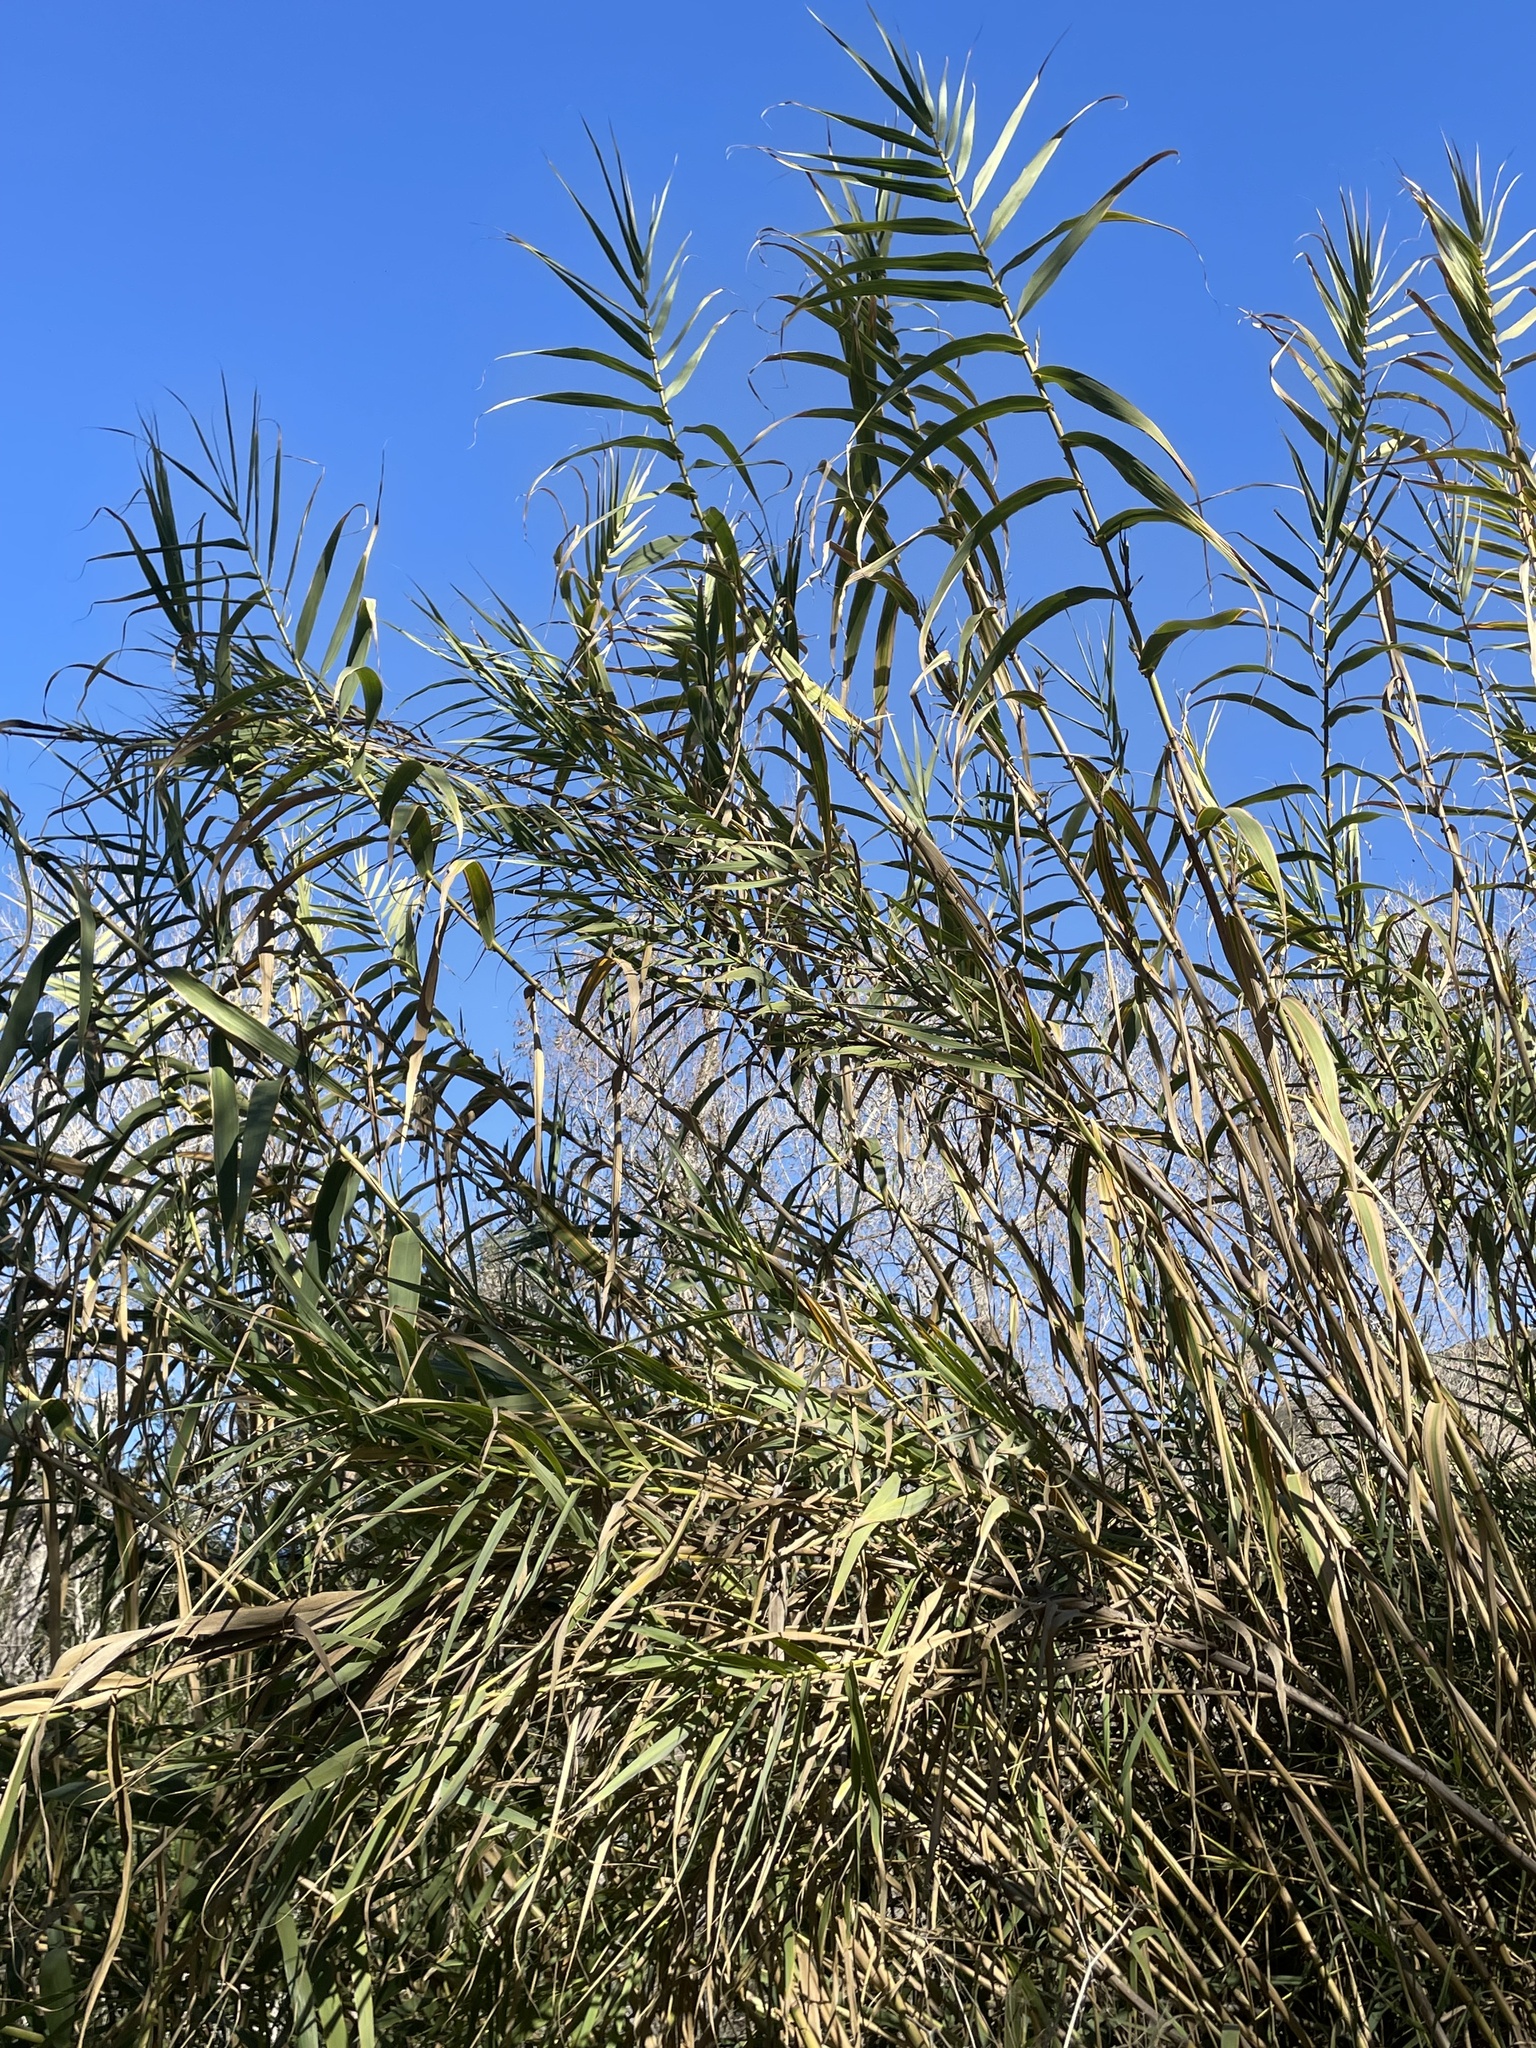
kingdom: Plantae
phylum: Tracheophyta
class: Liliopsida
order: Poales
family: Poaceae
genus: Arundo
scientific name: Arundo donax
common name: Giant reed
